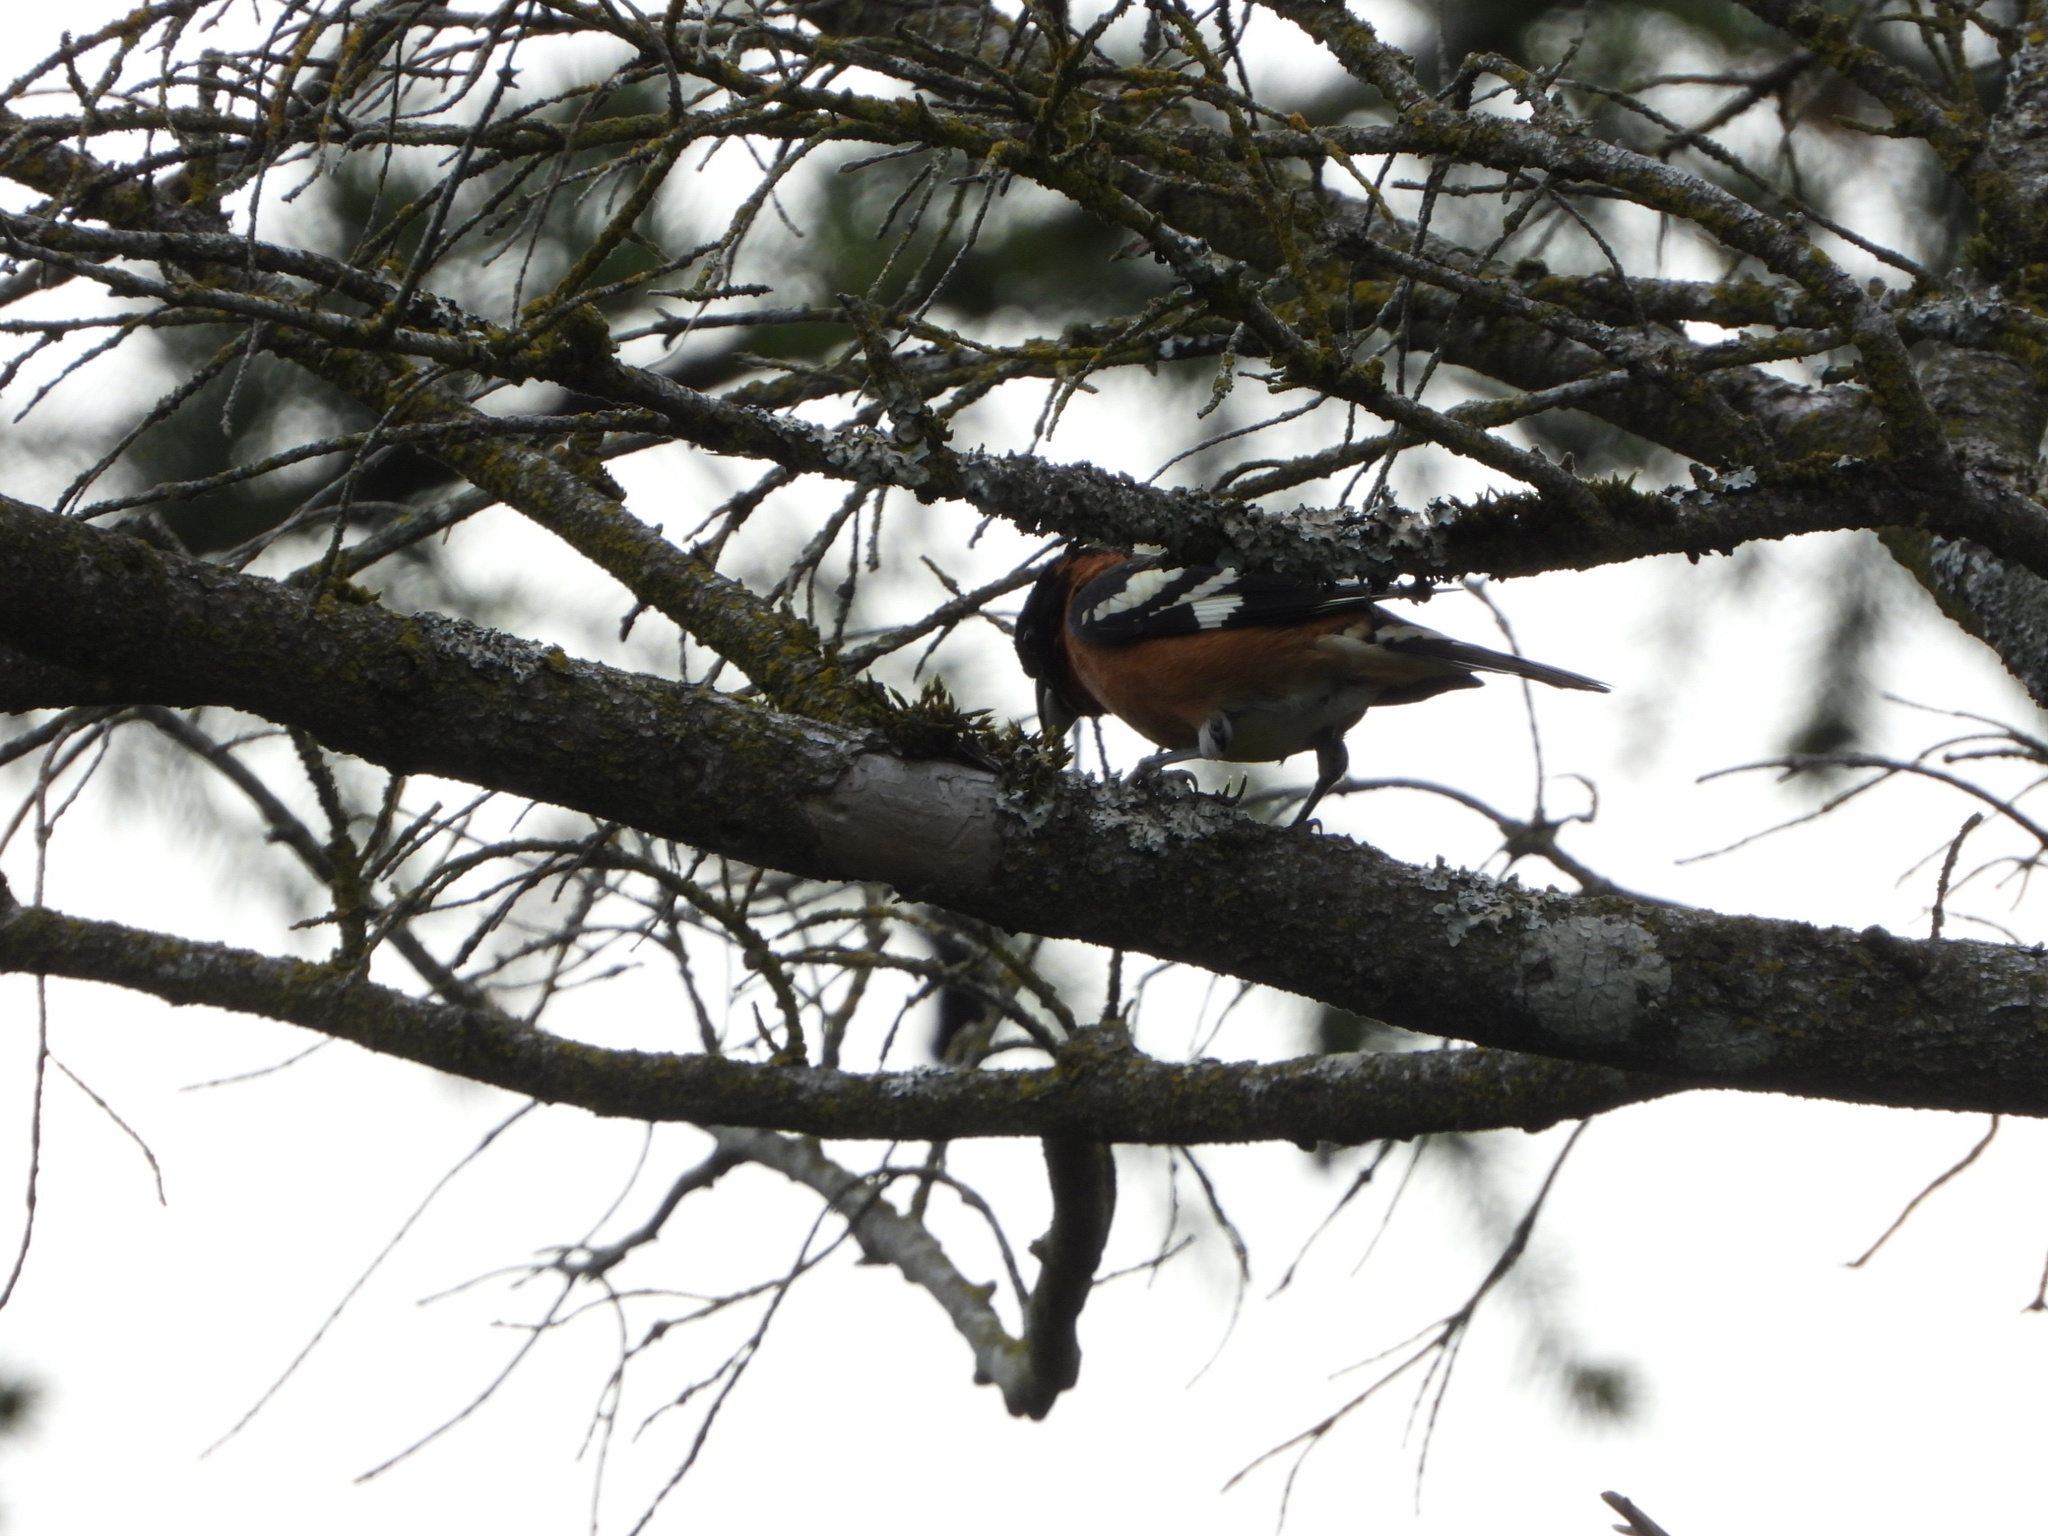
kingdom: Animalia
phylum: Chordata
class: Aves
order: Passeriformes
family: Cardinalidae
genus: Pheucticus
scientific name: Pheucticus melanocephalus
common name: Black-headed grosbeak
